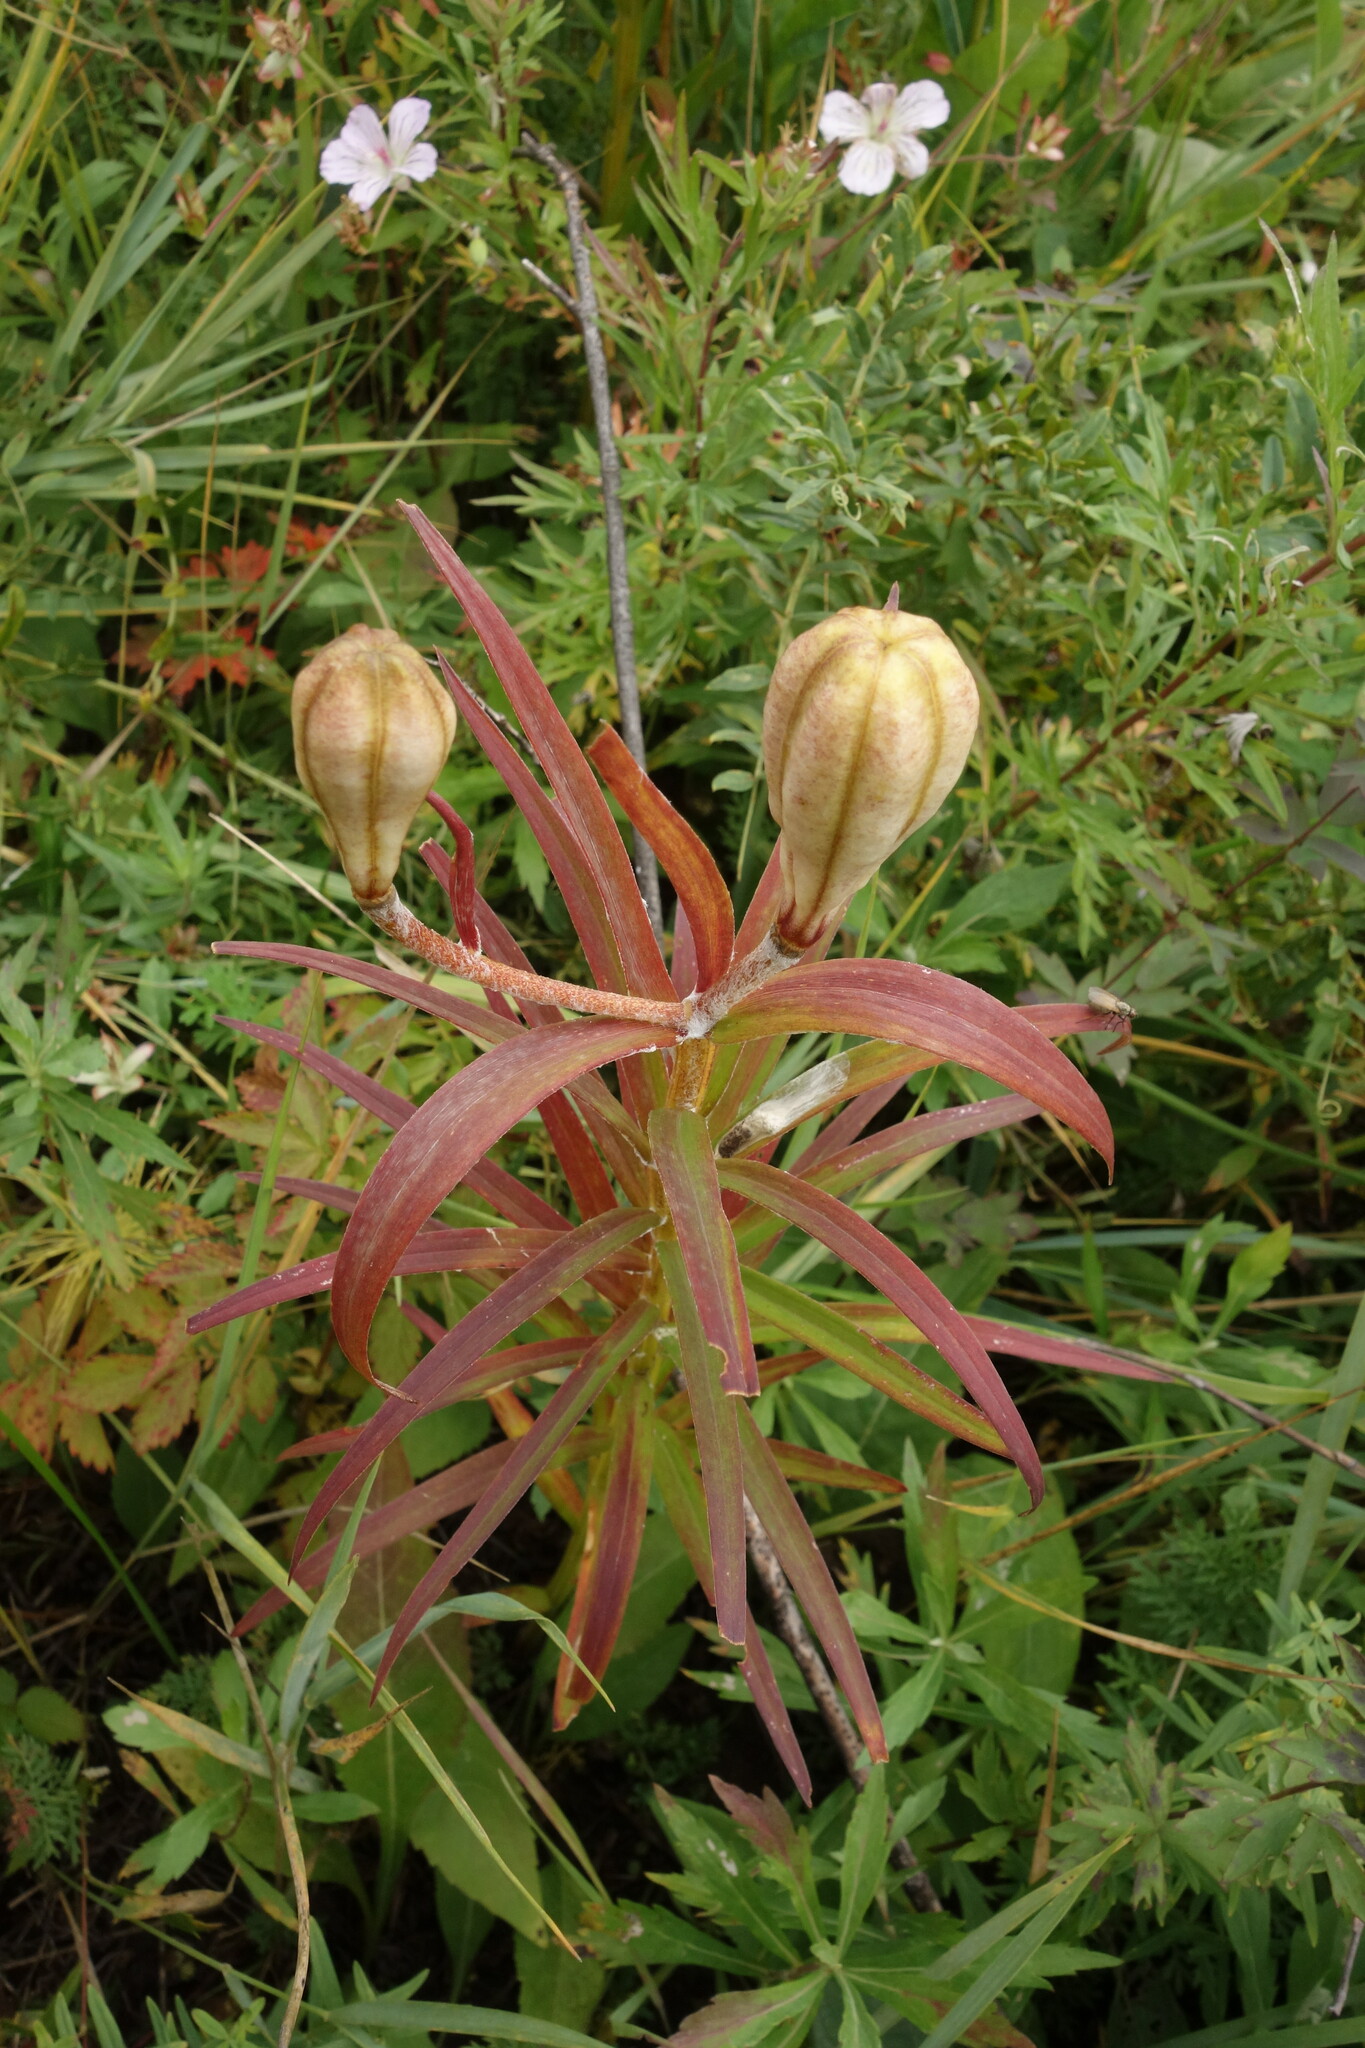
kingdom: Plantae
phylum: Tracheophyta
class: Liliopsida
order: Liliales
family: Liliaceae
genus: Lilium
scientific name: Lilium pensylvanicum
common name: Candlestick lily
